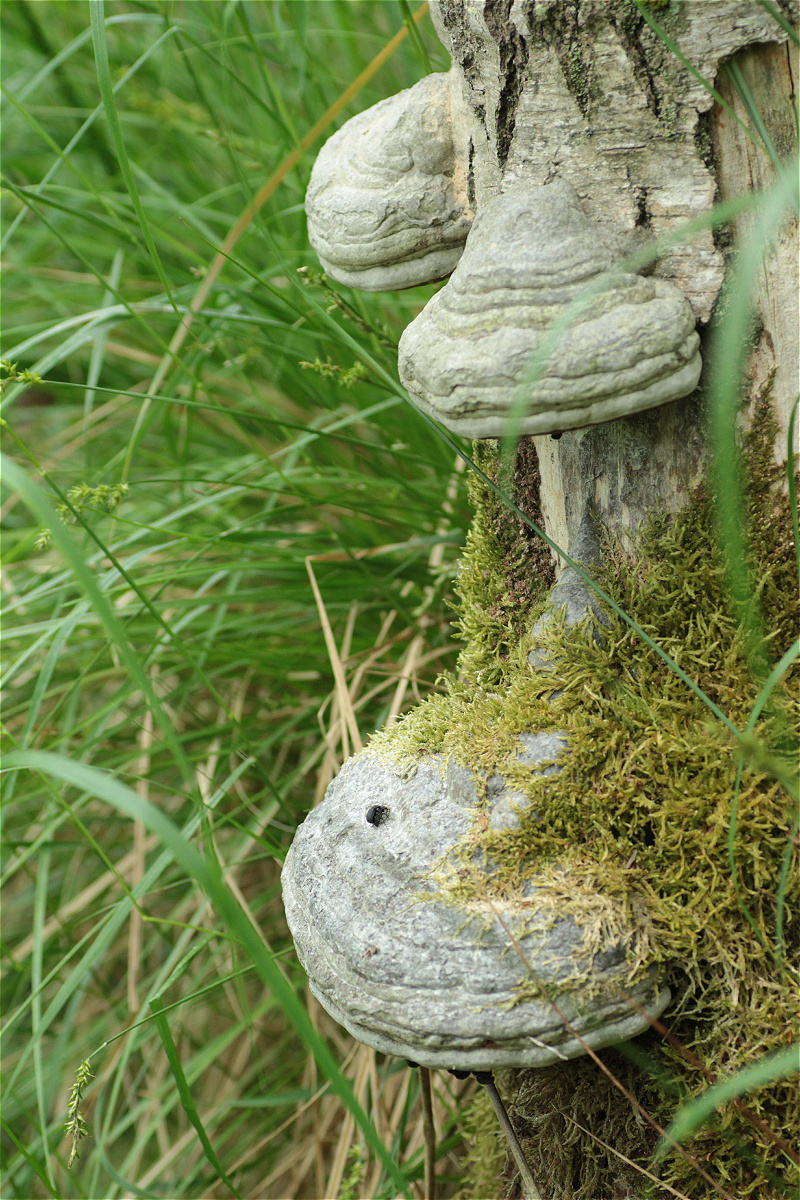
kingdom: Fungi
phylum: Basidiomycota
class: Agaricomycetes
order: Polyporales
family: Polyporaceae
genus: Fomes
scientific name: Fomes fomentarius
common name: Hoof fungus
